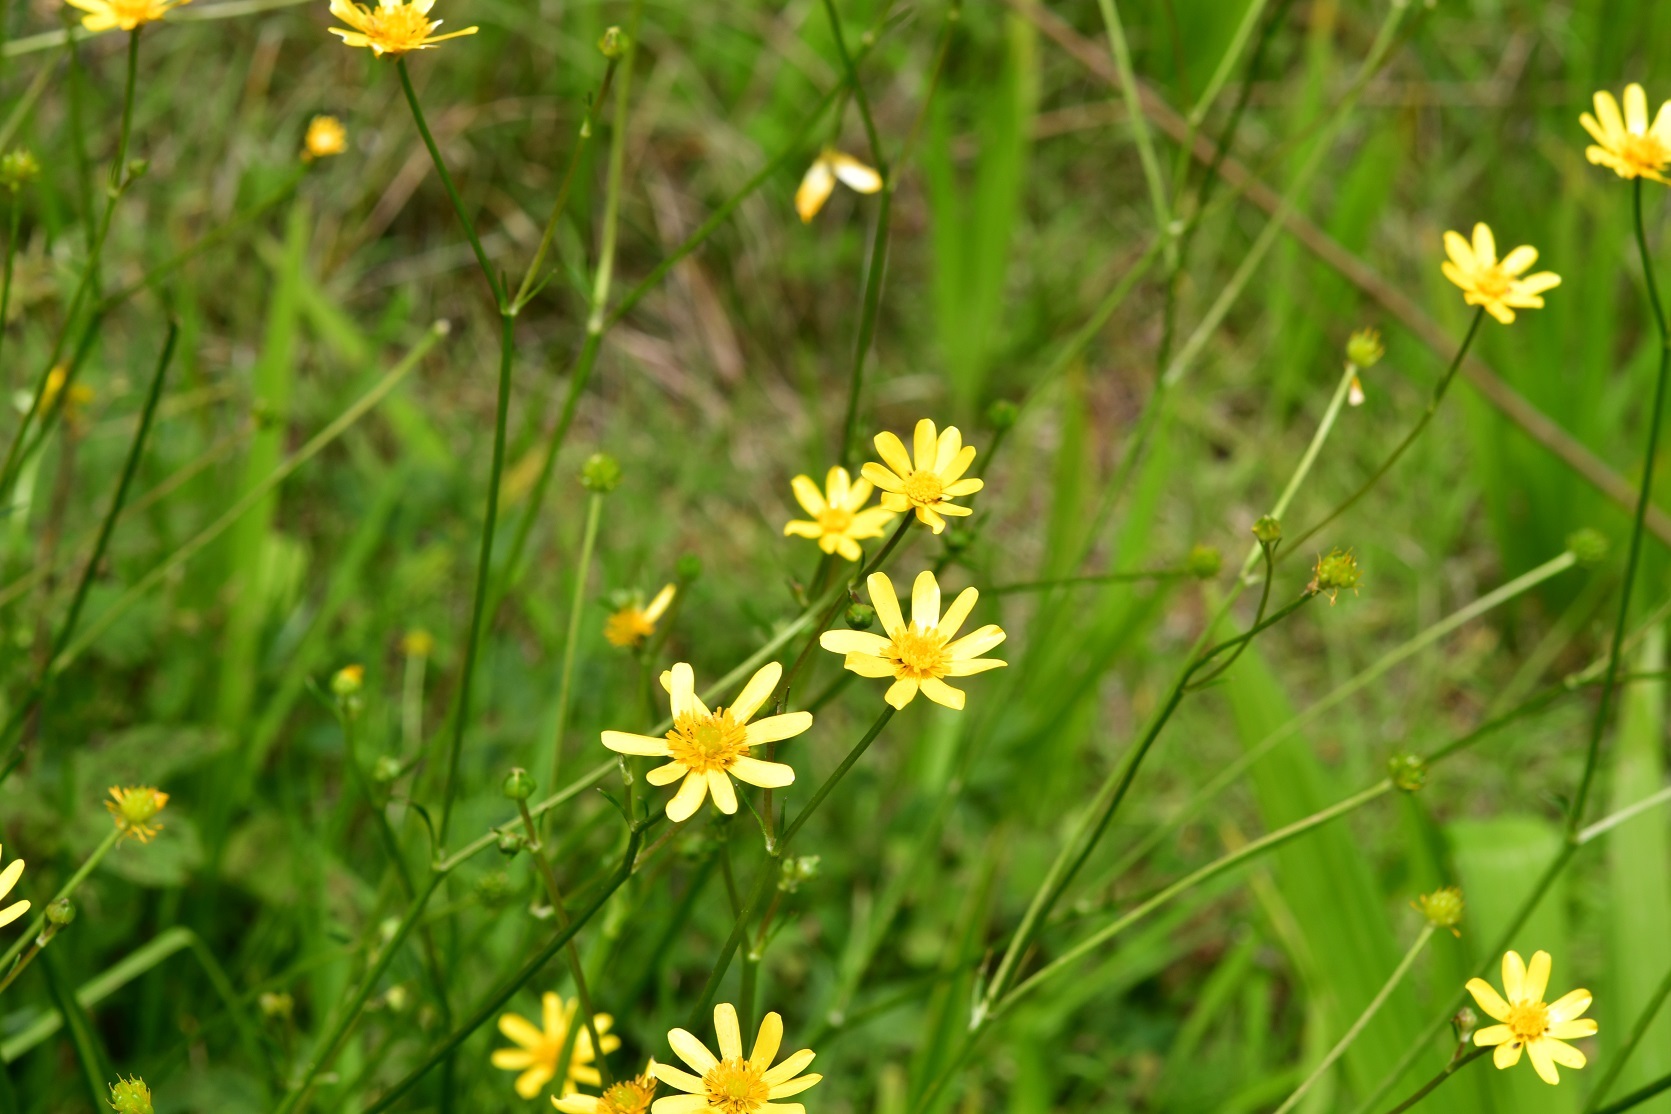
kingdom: Plantae
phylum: Tracheophyta
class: Magnoliopsida
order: Ranunculales
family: Ranunculaceae
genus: Ranunculus
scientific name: Ranunculus petiolaris
